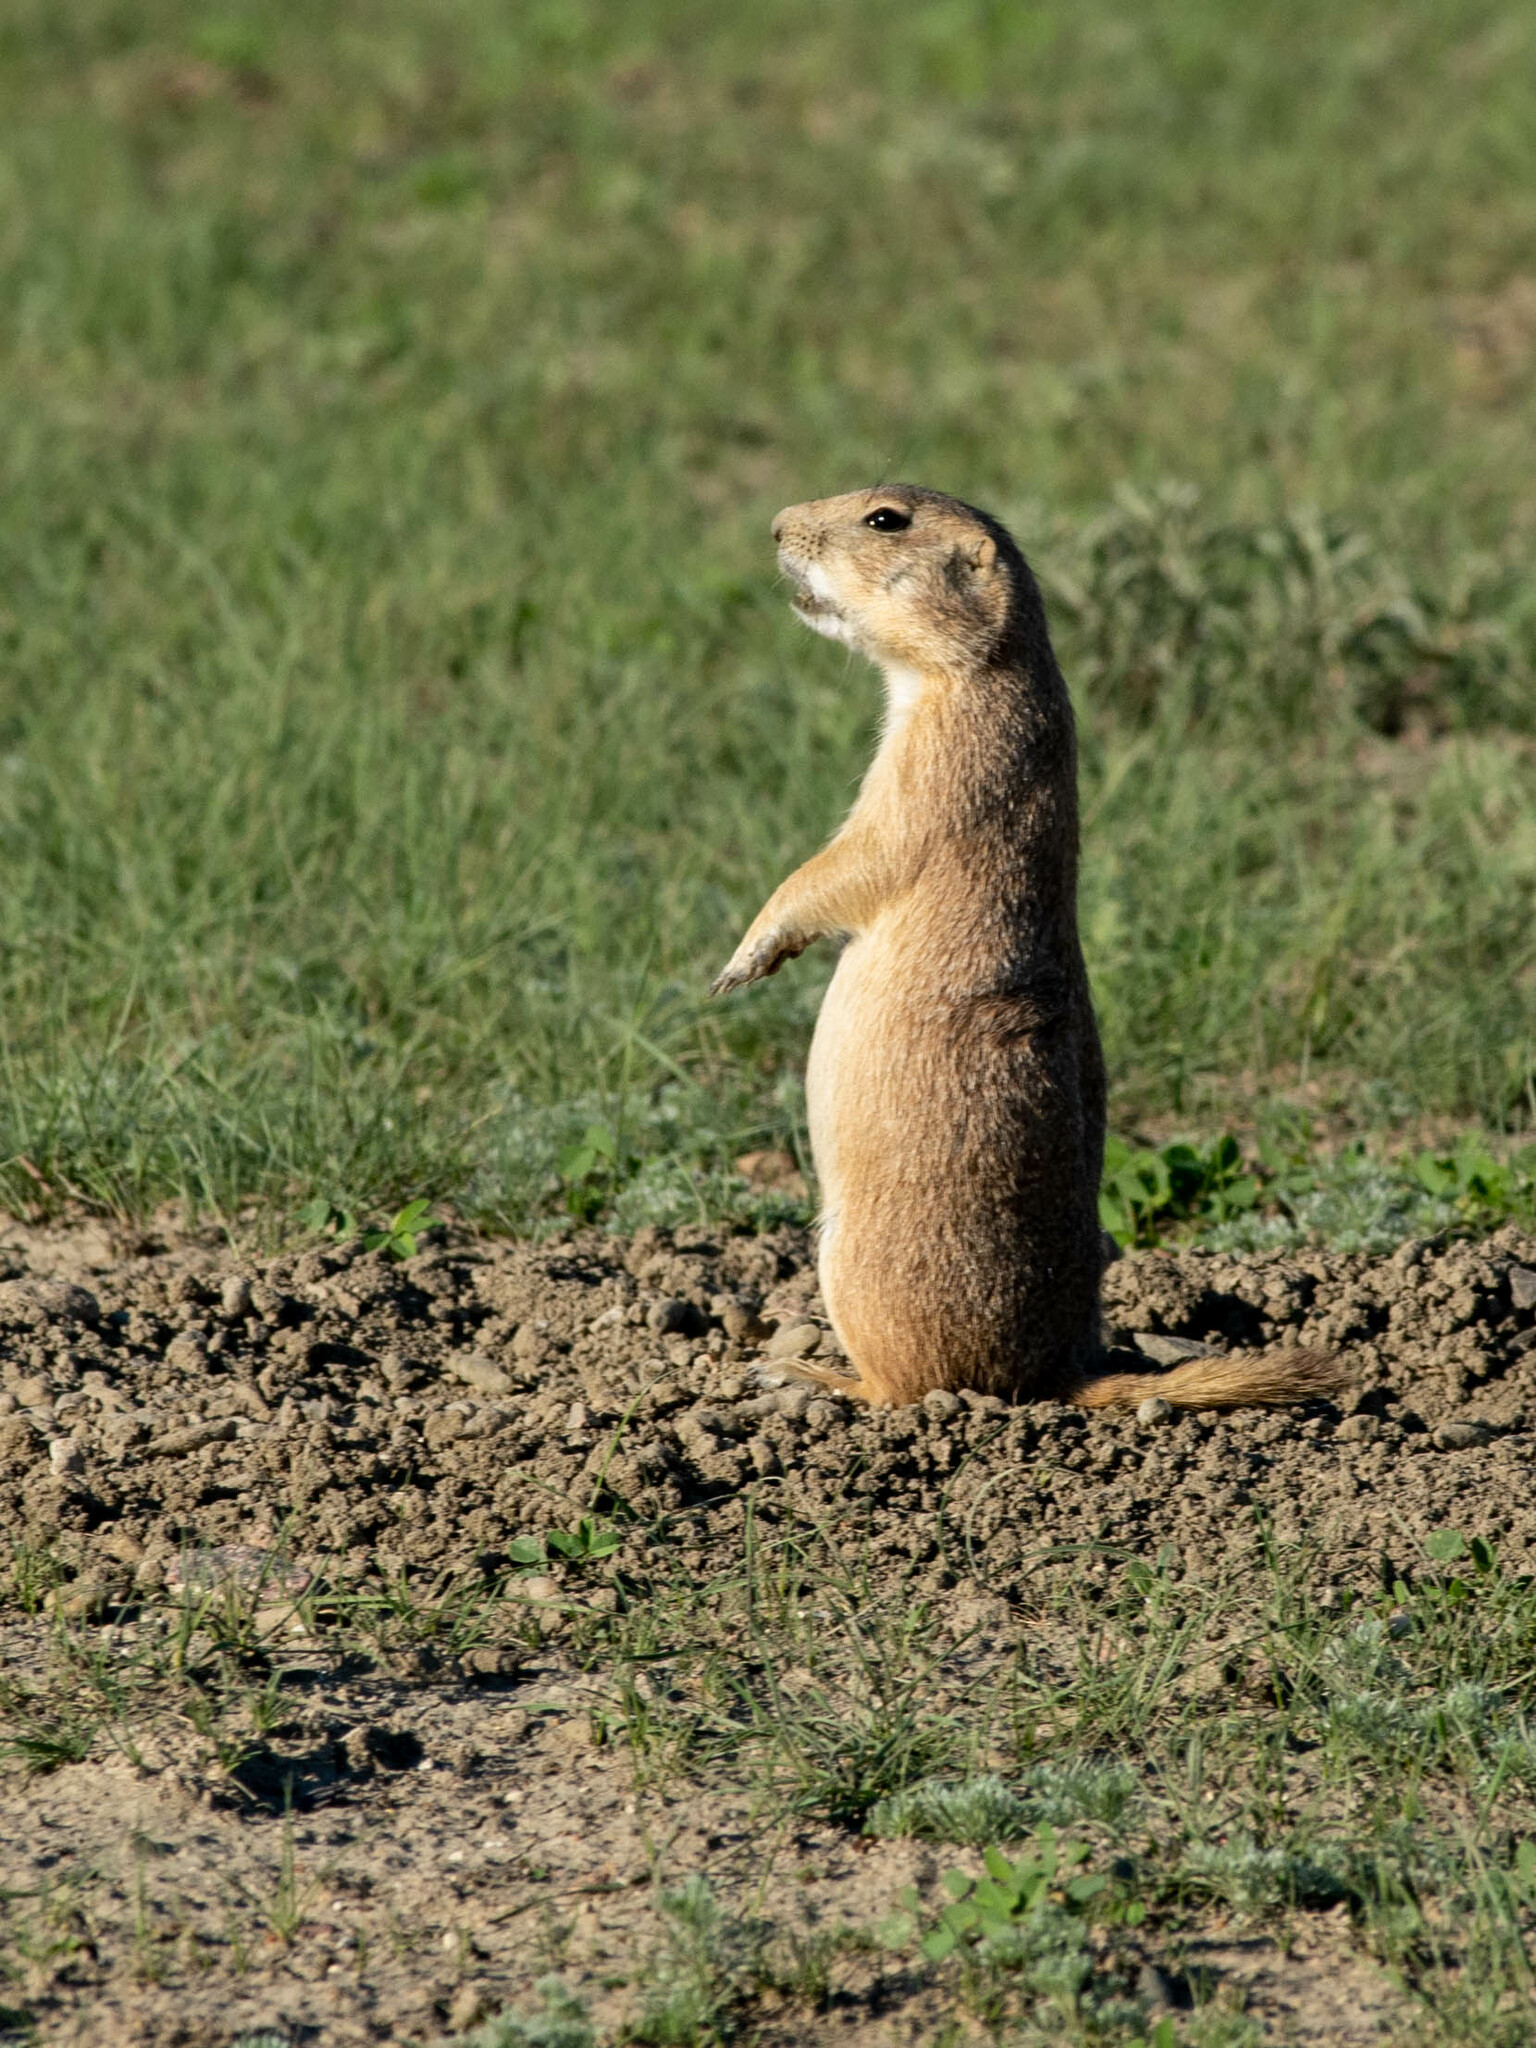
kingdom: Animalia
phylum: Chordata
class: Mammalia
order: Rodentia
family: Sciuridae
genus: Cynomys
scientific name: Cynomys ludovicianus
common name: Black-tailed prairie dog
